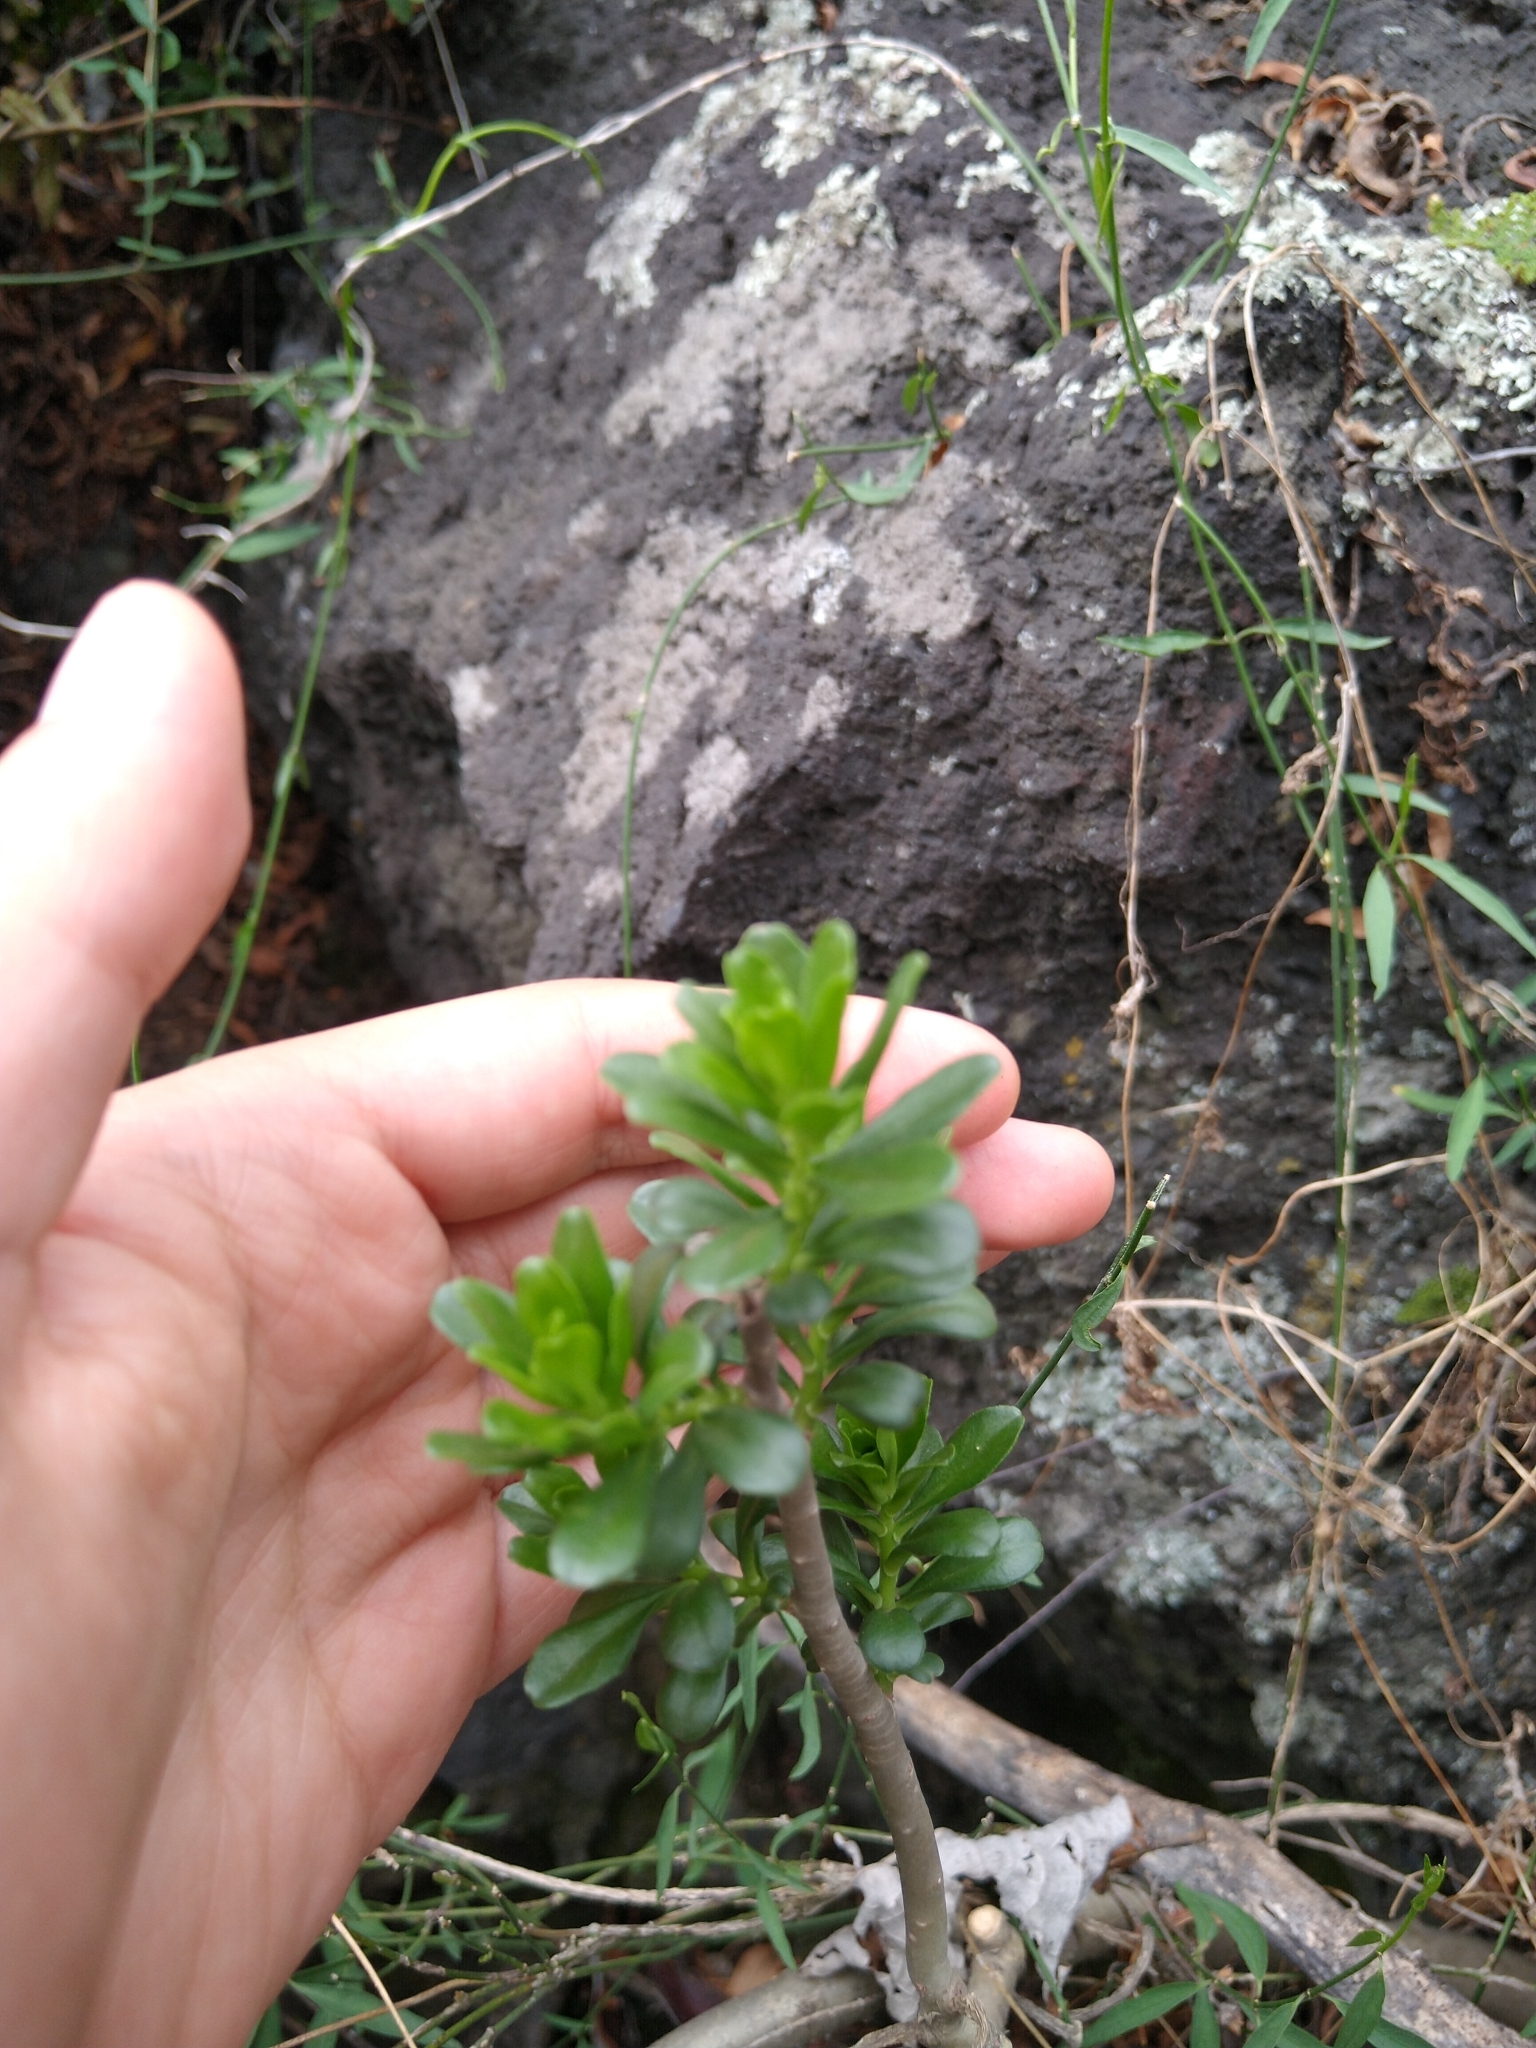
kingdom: Plantae
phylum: Tracheophyta
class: Magnoliopsida
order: Saxifragales
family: Crassulaceae
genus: Sedum
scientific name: Sedum oxypetalum
